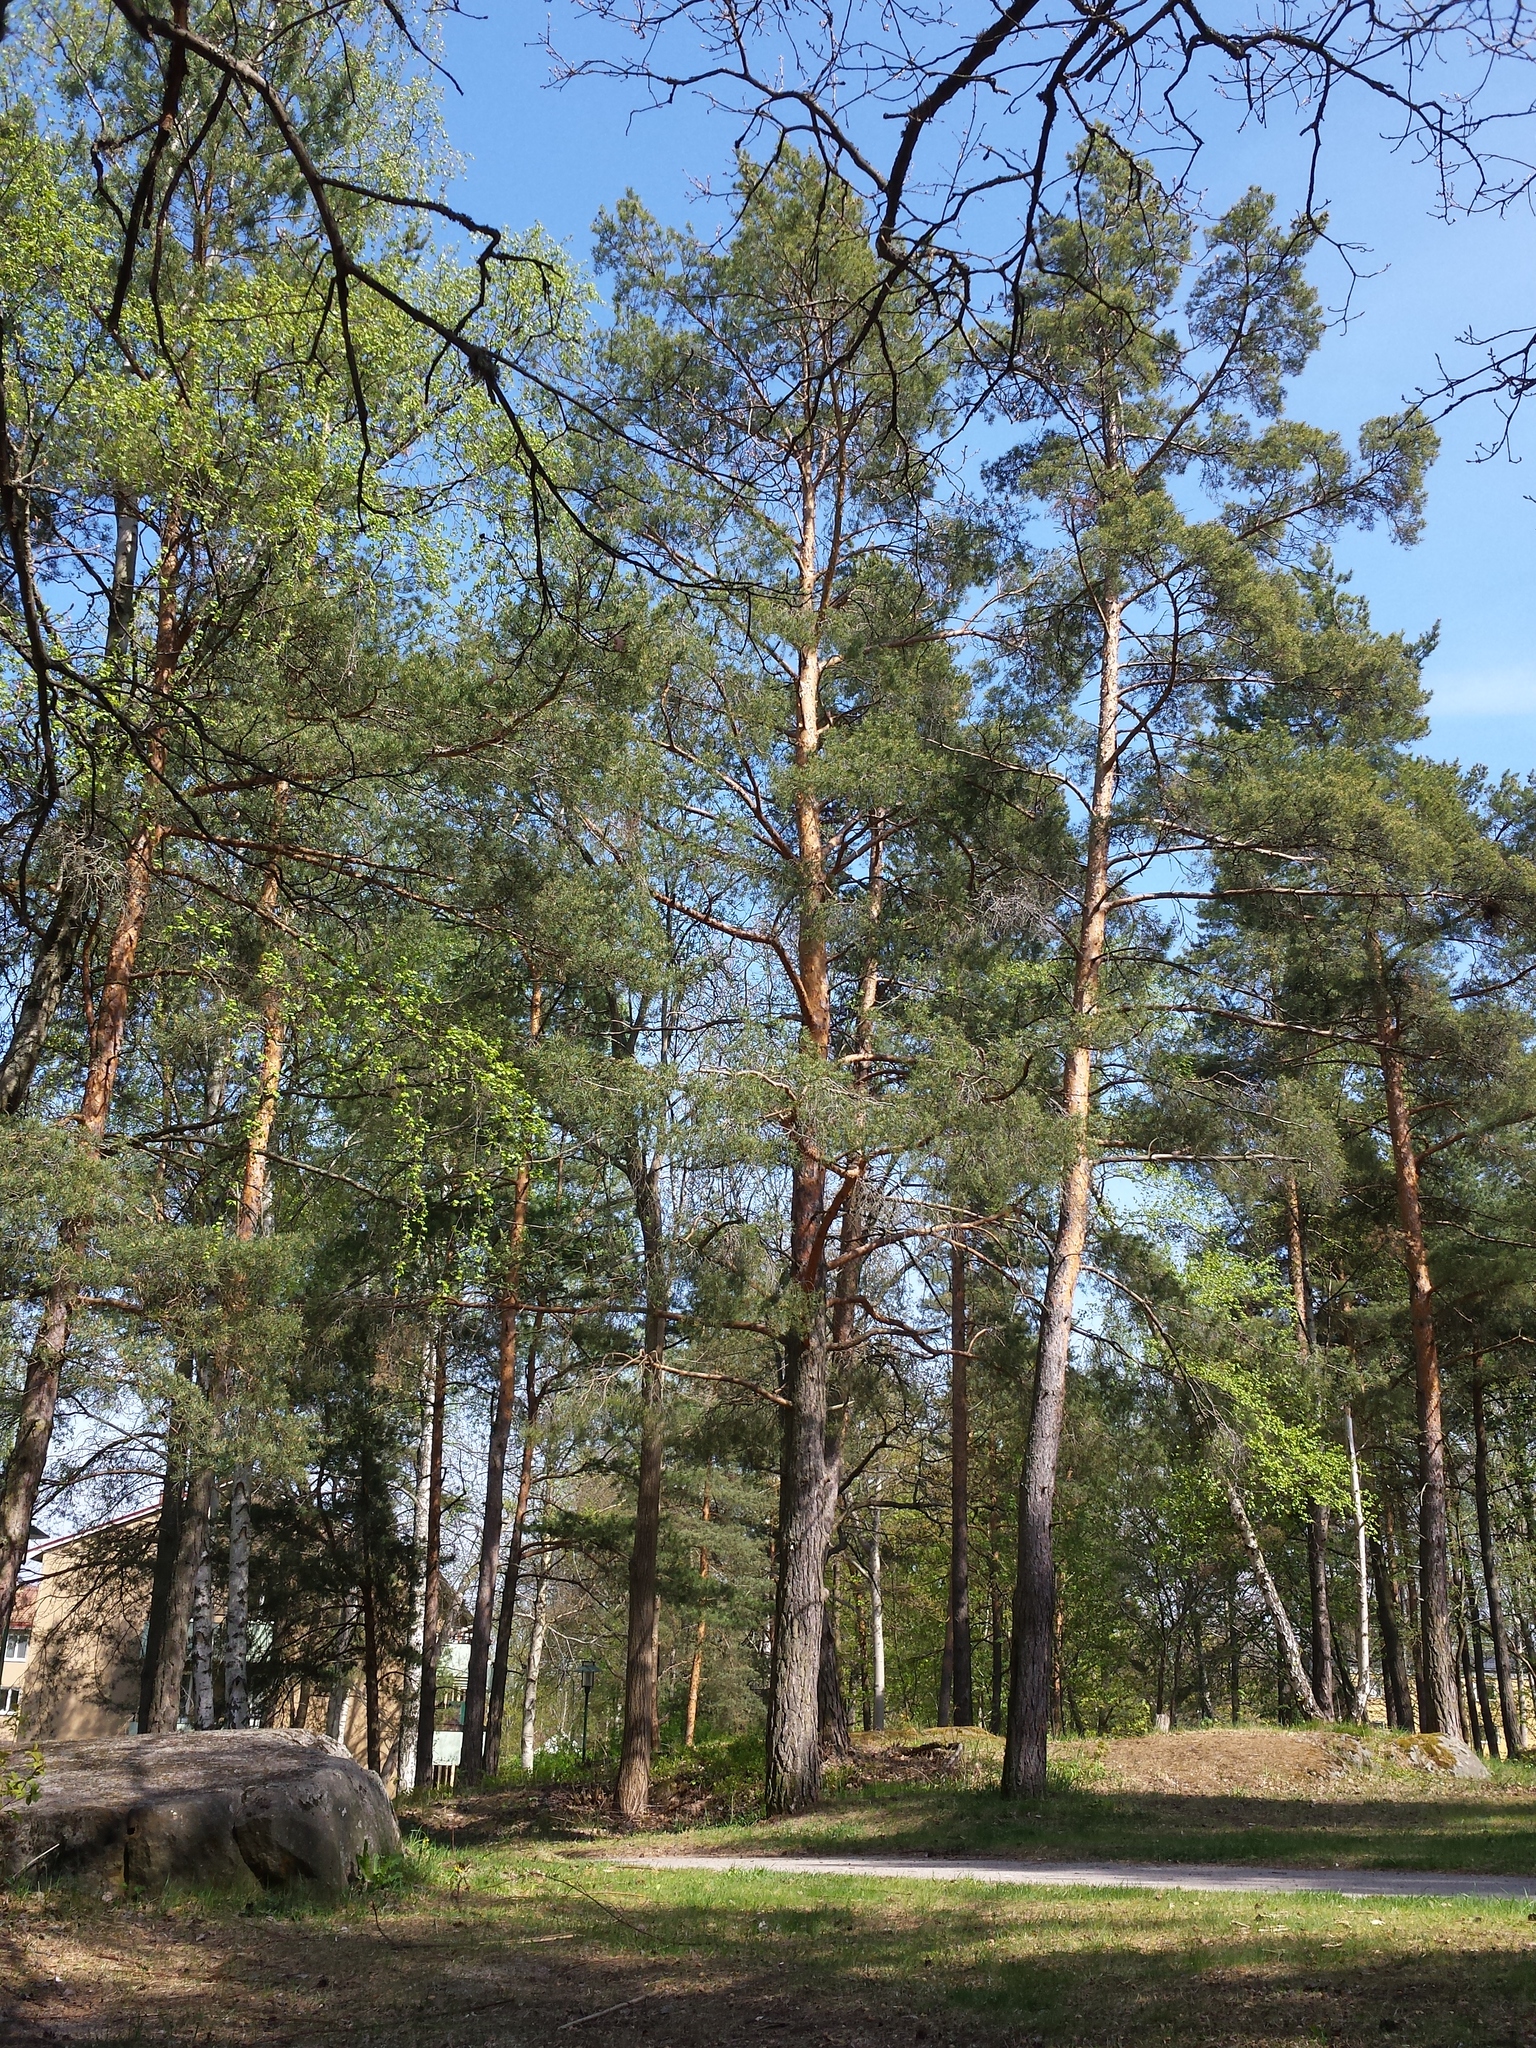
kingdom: Plantae
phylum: Tracheophyta
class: Pinopsida
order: Pinales
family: Pinaceae
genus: Pinus
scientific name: Pinus sylvestris
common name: Scots pine
